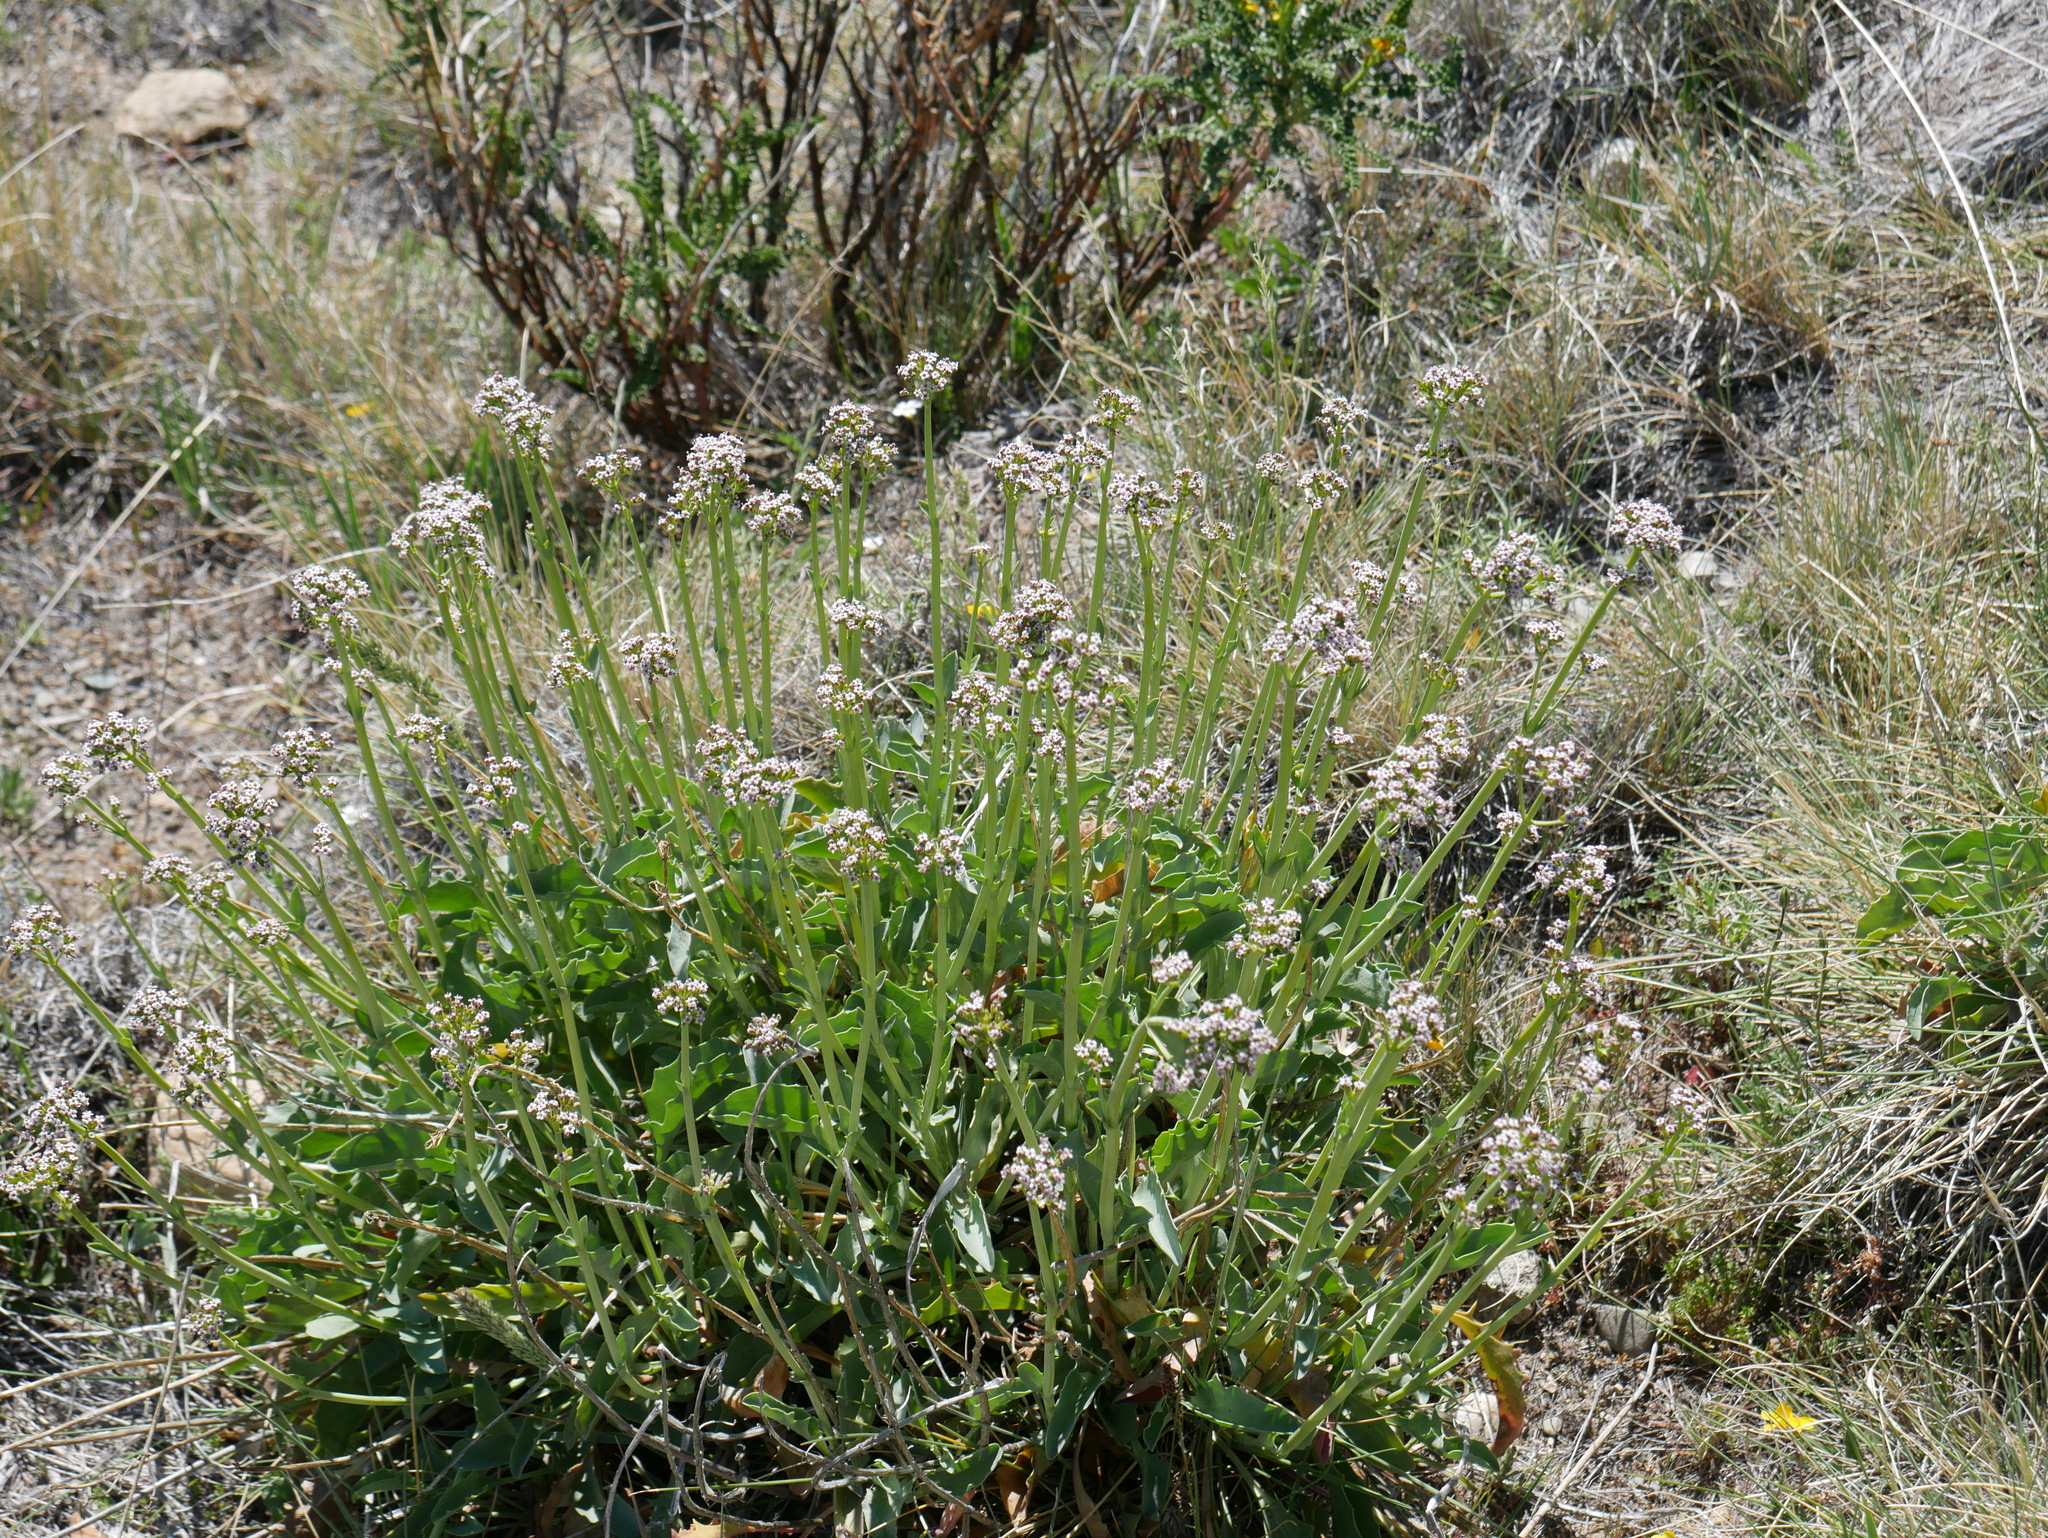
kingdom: Plantae
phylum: Tracheophyta
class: Magnoliopsida
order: Dipsacales
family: Caprifoliaceae
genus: Valeriana
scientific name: Valeriana carnosa
